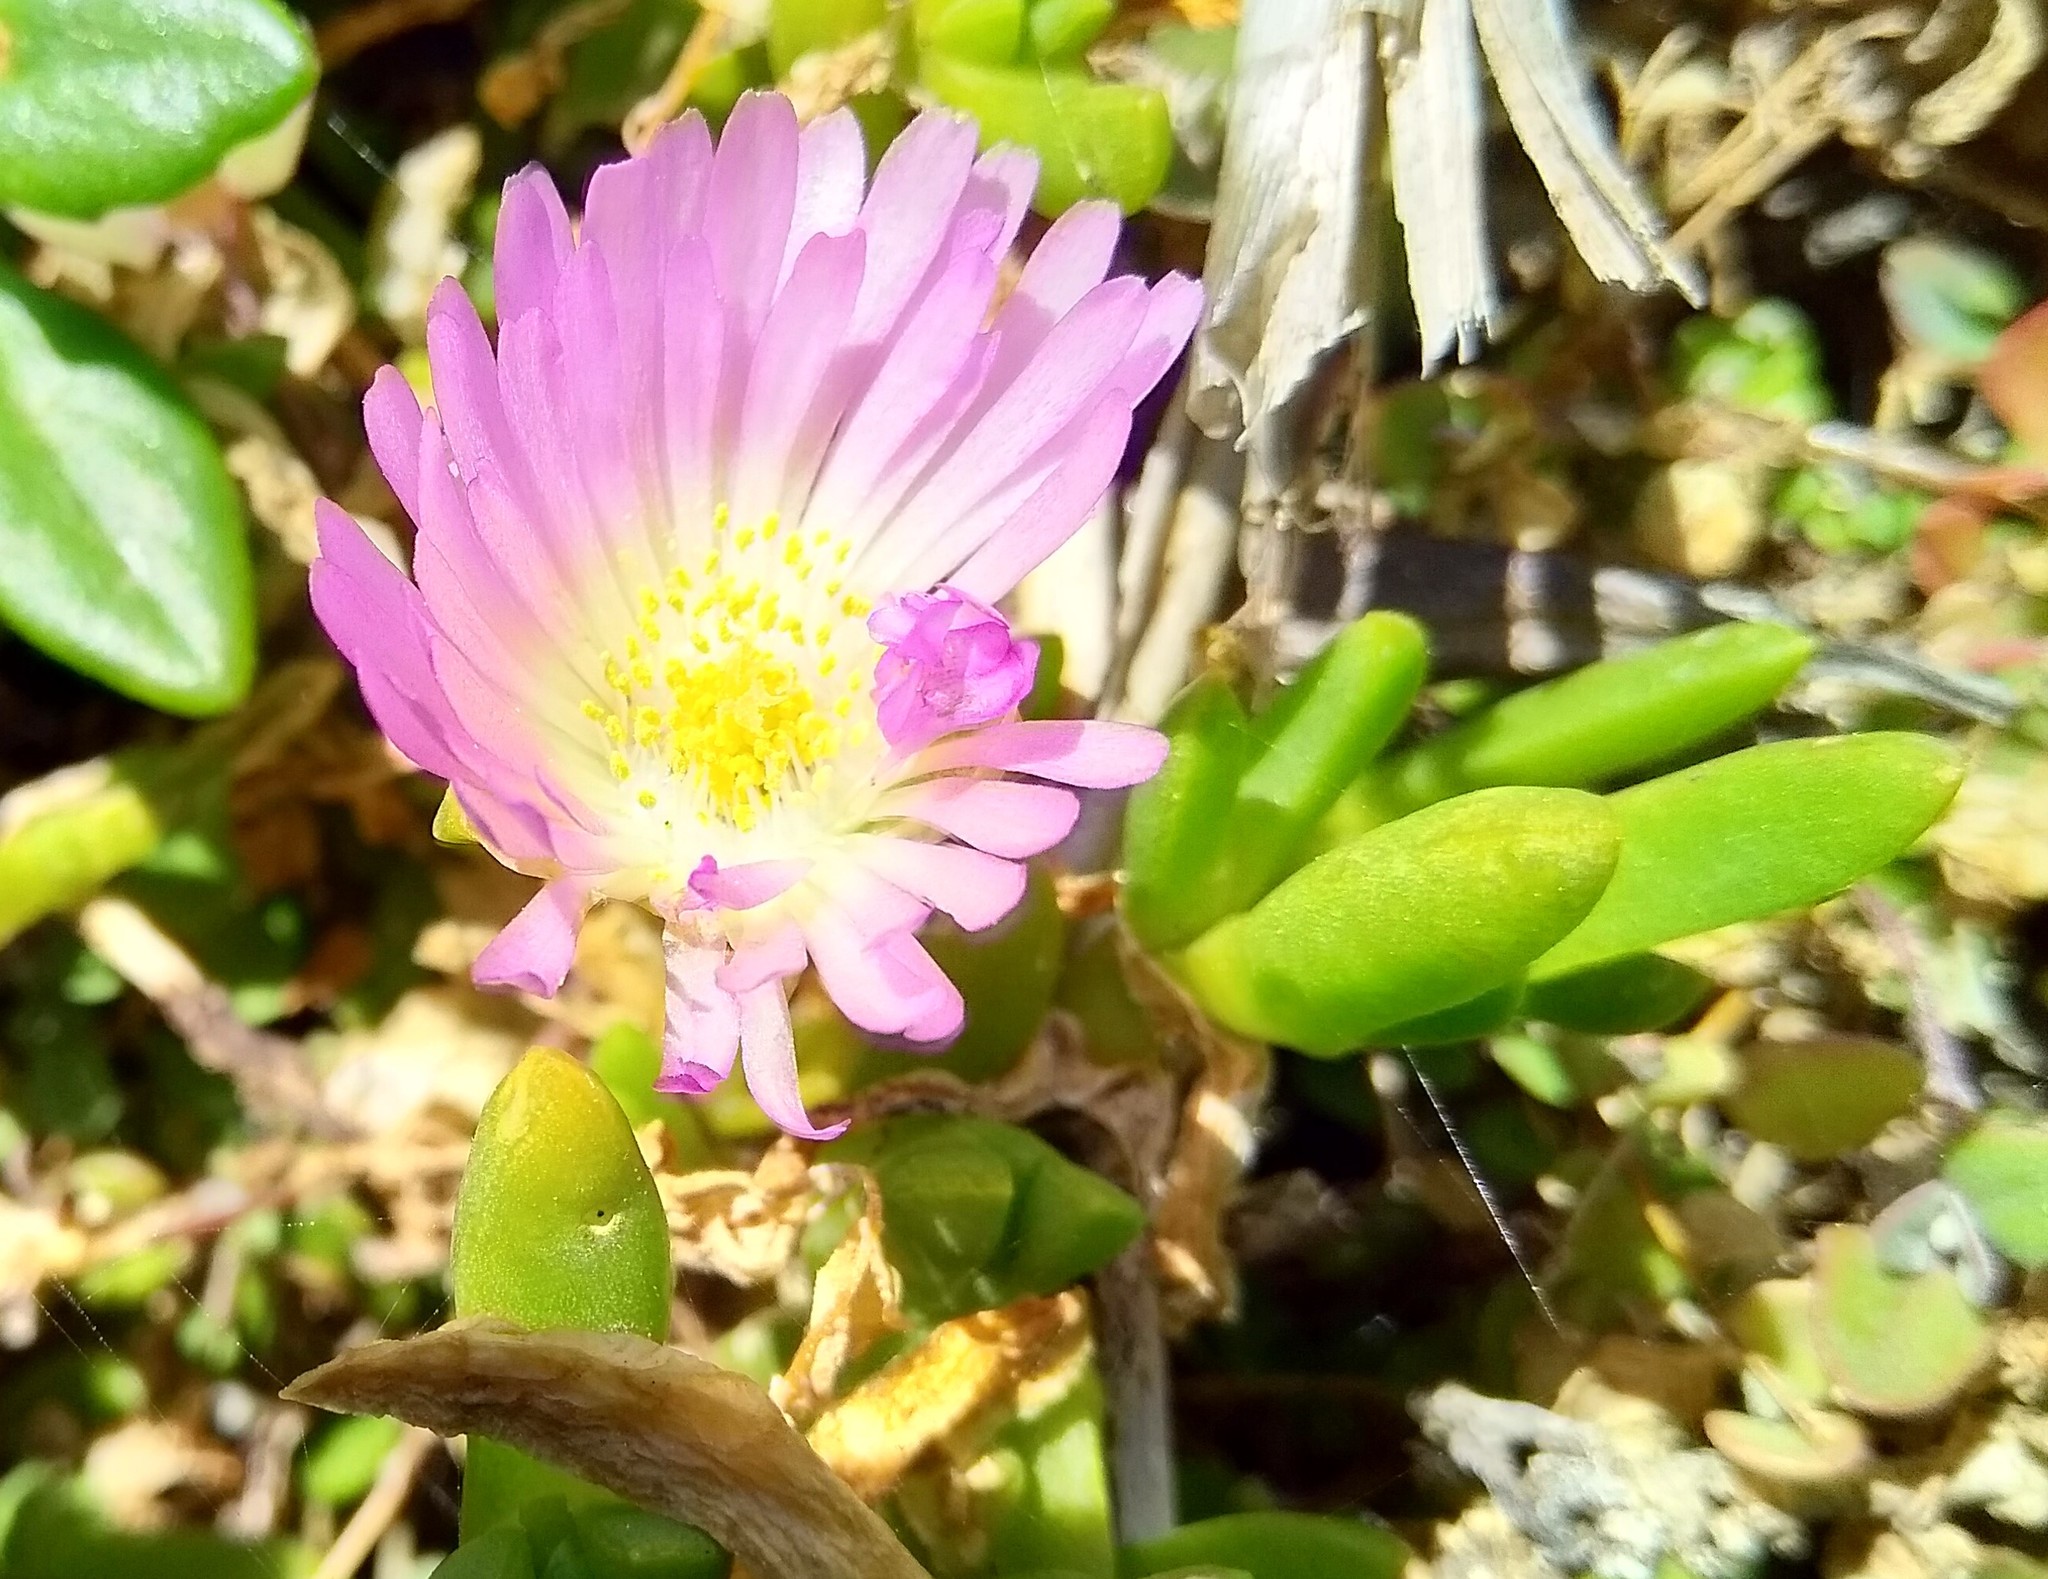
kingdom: Plantae
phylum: Tracheophyta
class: Magnoliopsida
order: Caryophyllales
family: Aizoaceae
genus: Disphyma
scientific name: Disphyma australe
